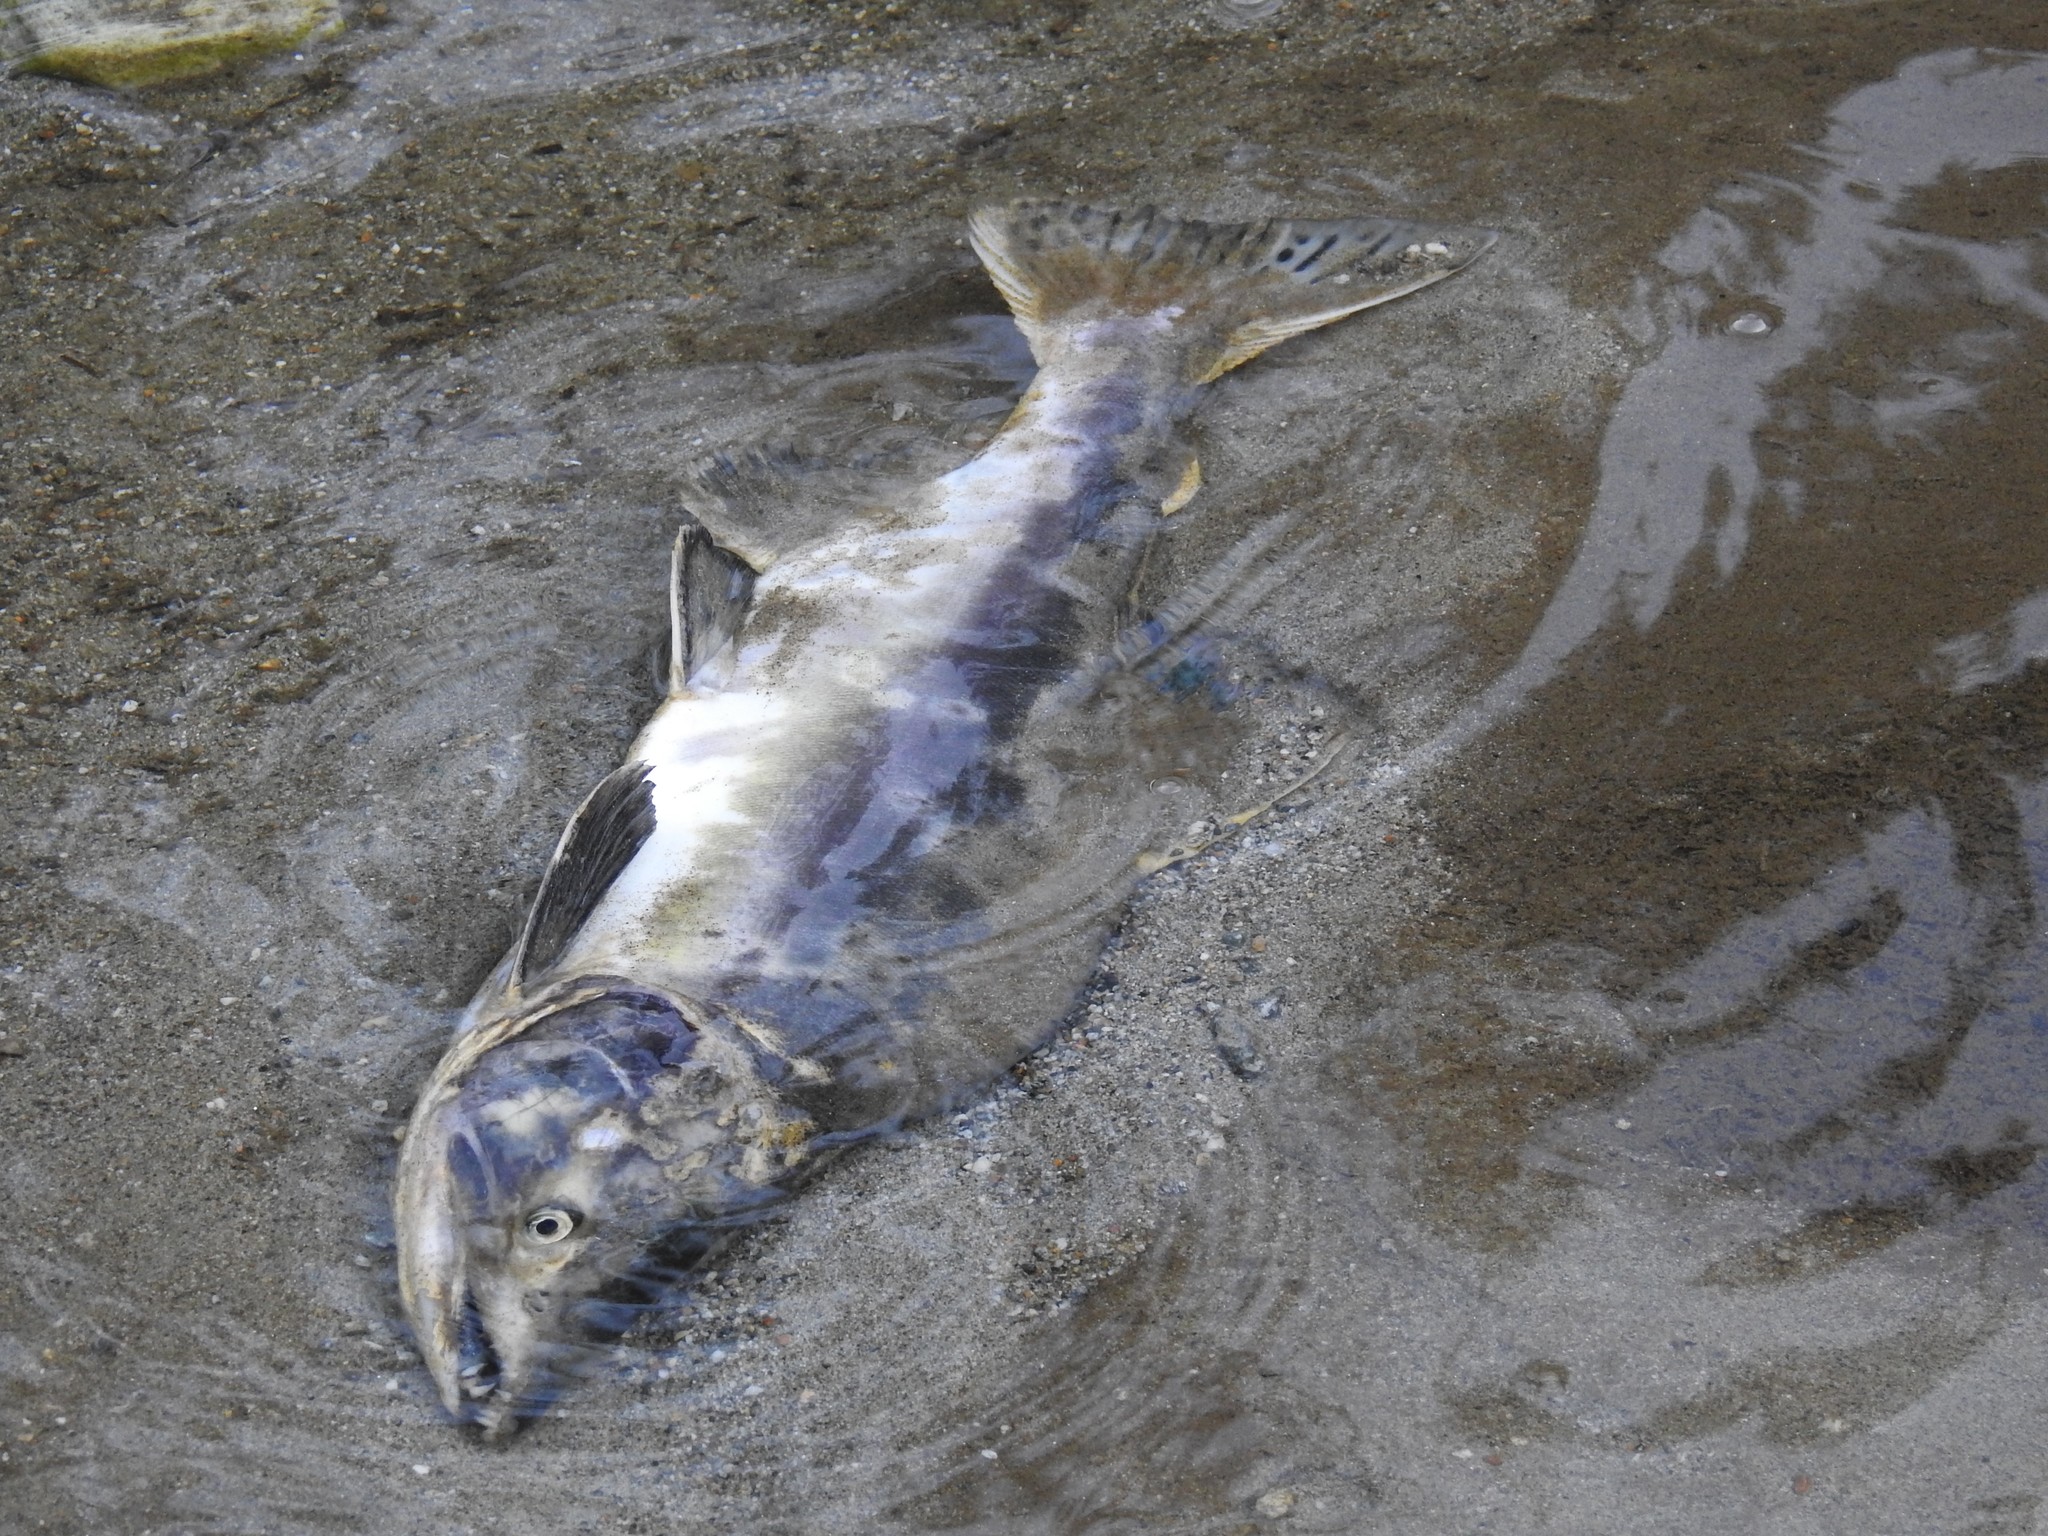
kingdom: Animalia
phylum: Chordata
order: Salmoniformes
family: Salmonidae
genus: Oncorhynchus
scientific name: Oncorhynchus gorbuscha
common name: Humpback salmon
